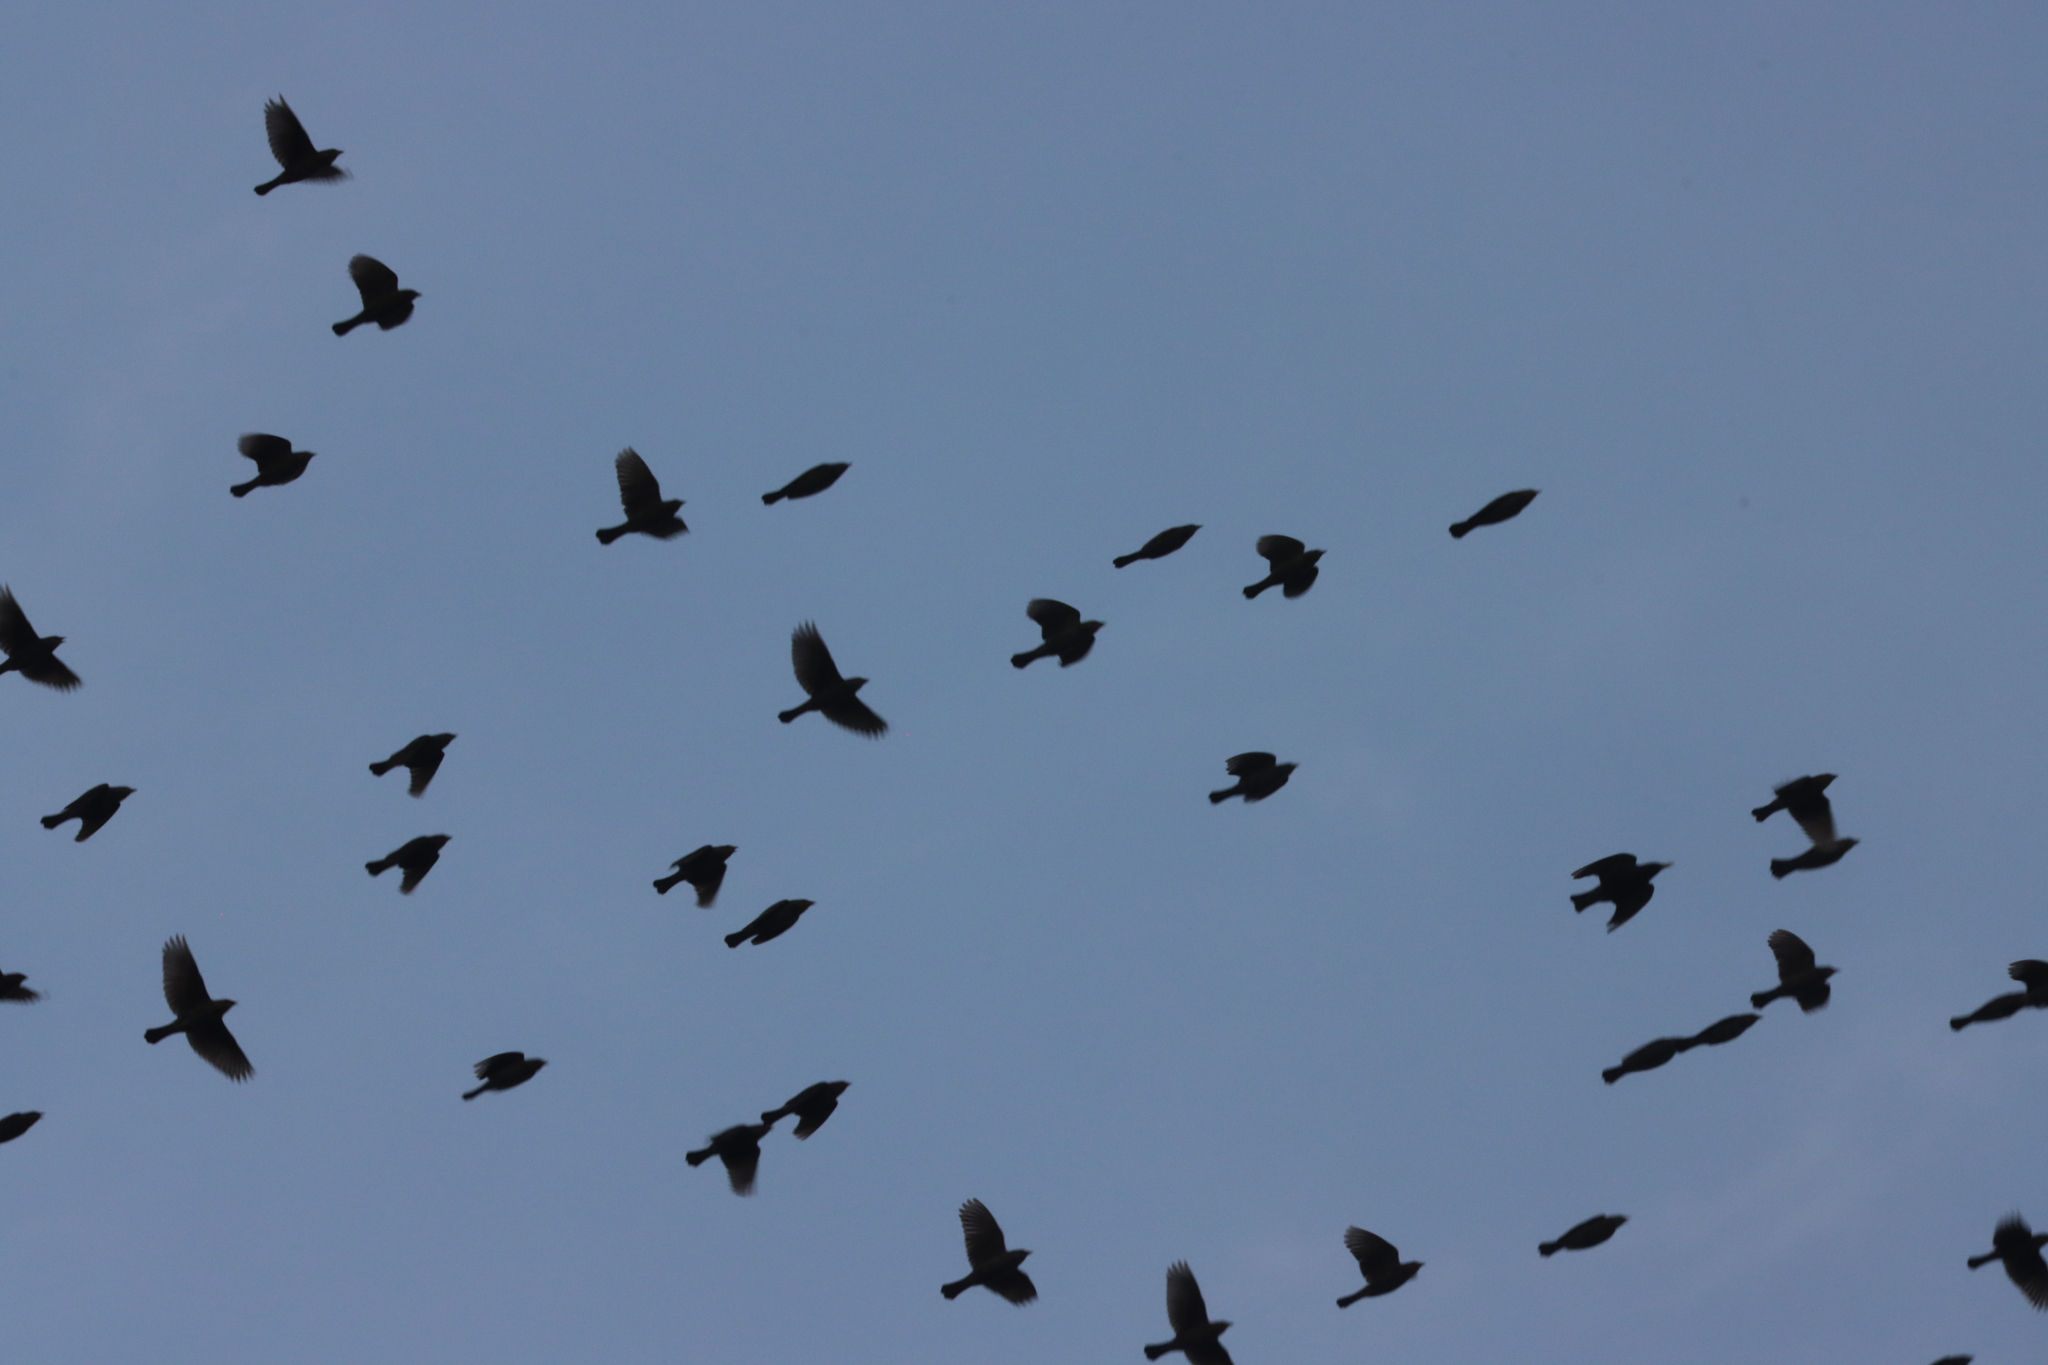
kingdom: Animalia
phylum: Chordata
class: Aves
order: Passeriformes
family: Icteridae
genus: Agelaius
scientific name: Agelaius phoeniceus
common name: Red-winged blackbird
